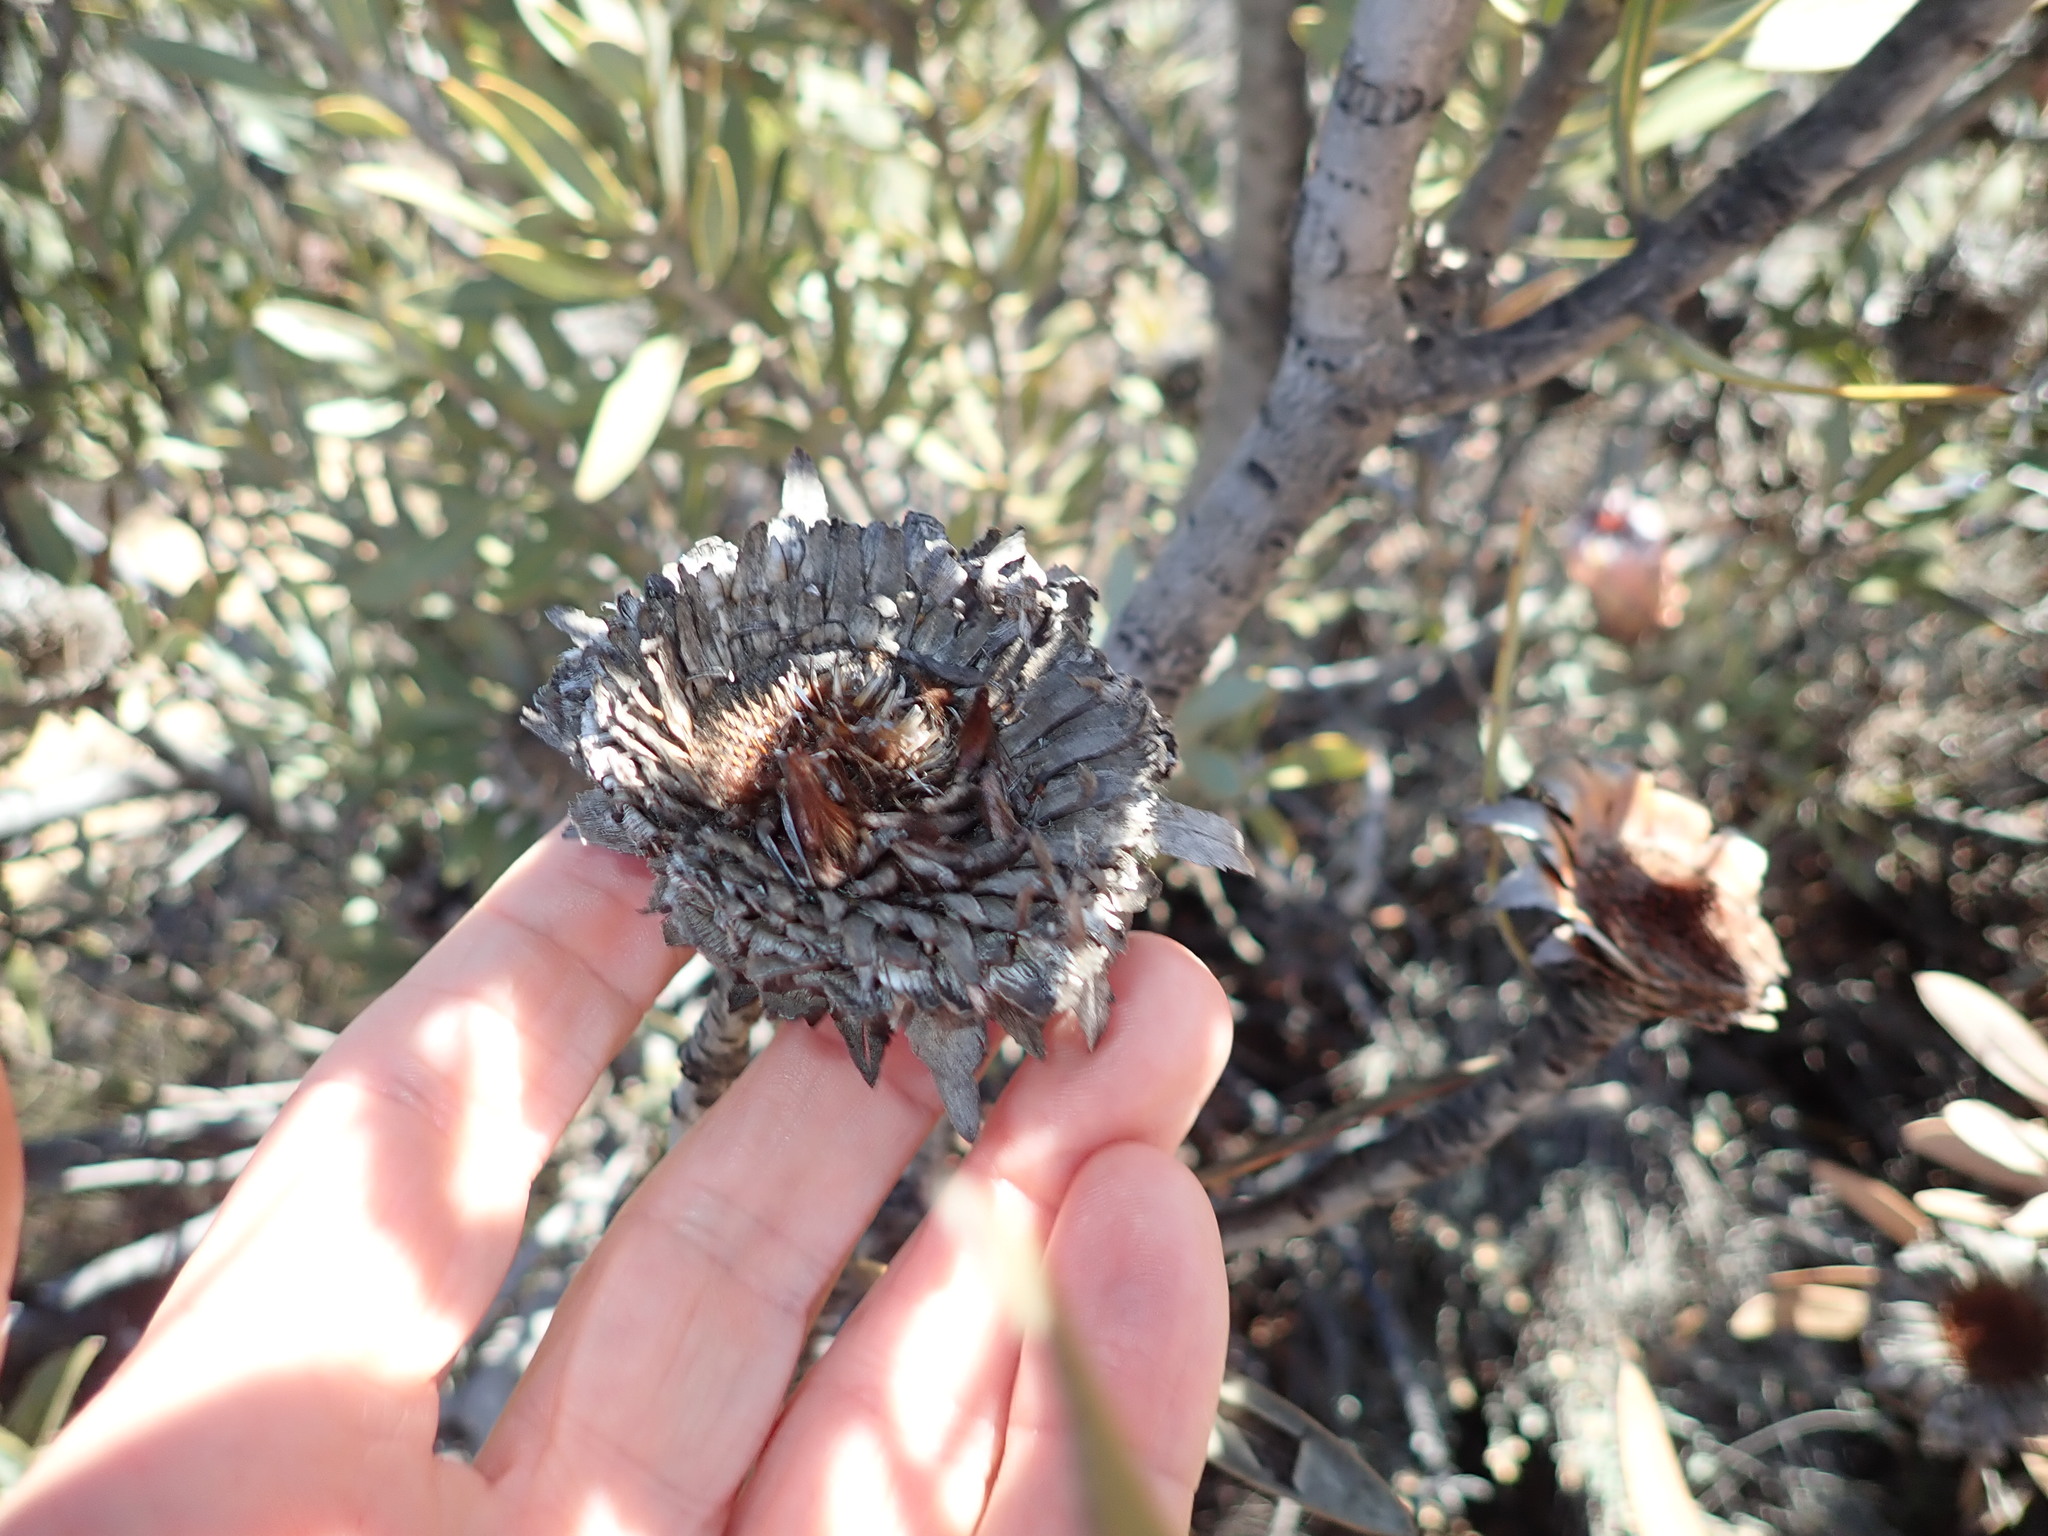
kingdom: Plantae
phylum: Tracheophyta
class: Magnoliopsida
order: Proteales
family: Proteaceae
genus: Protea
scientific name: Protea laurifolia
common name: Grey-leaf sugarbsh
